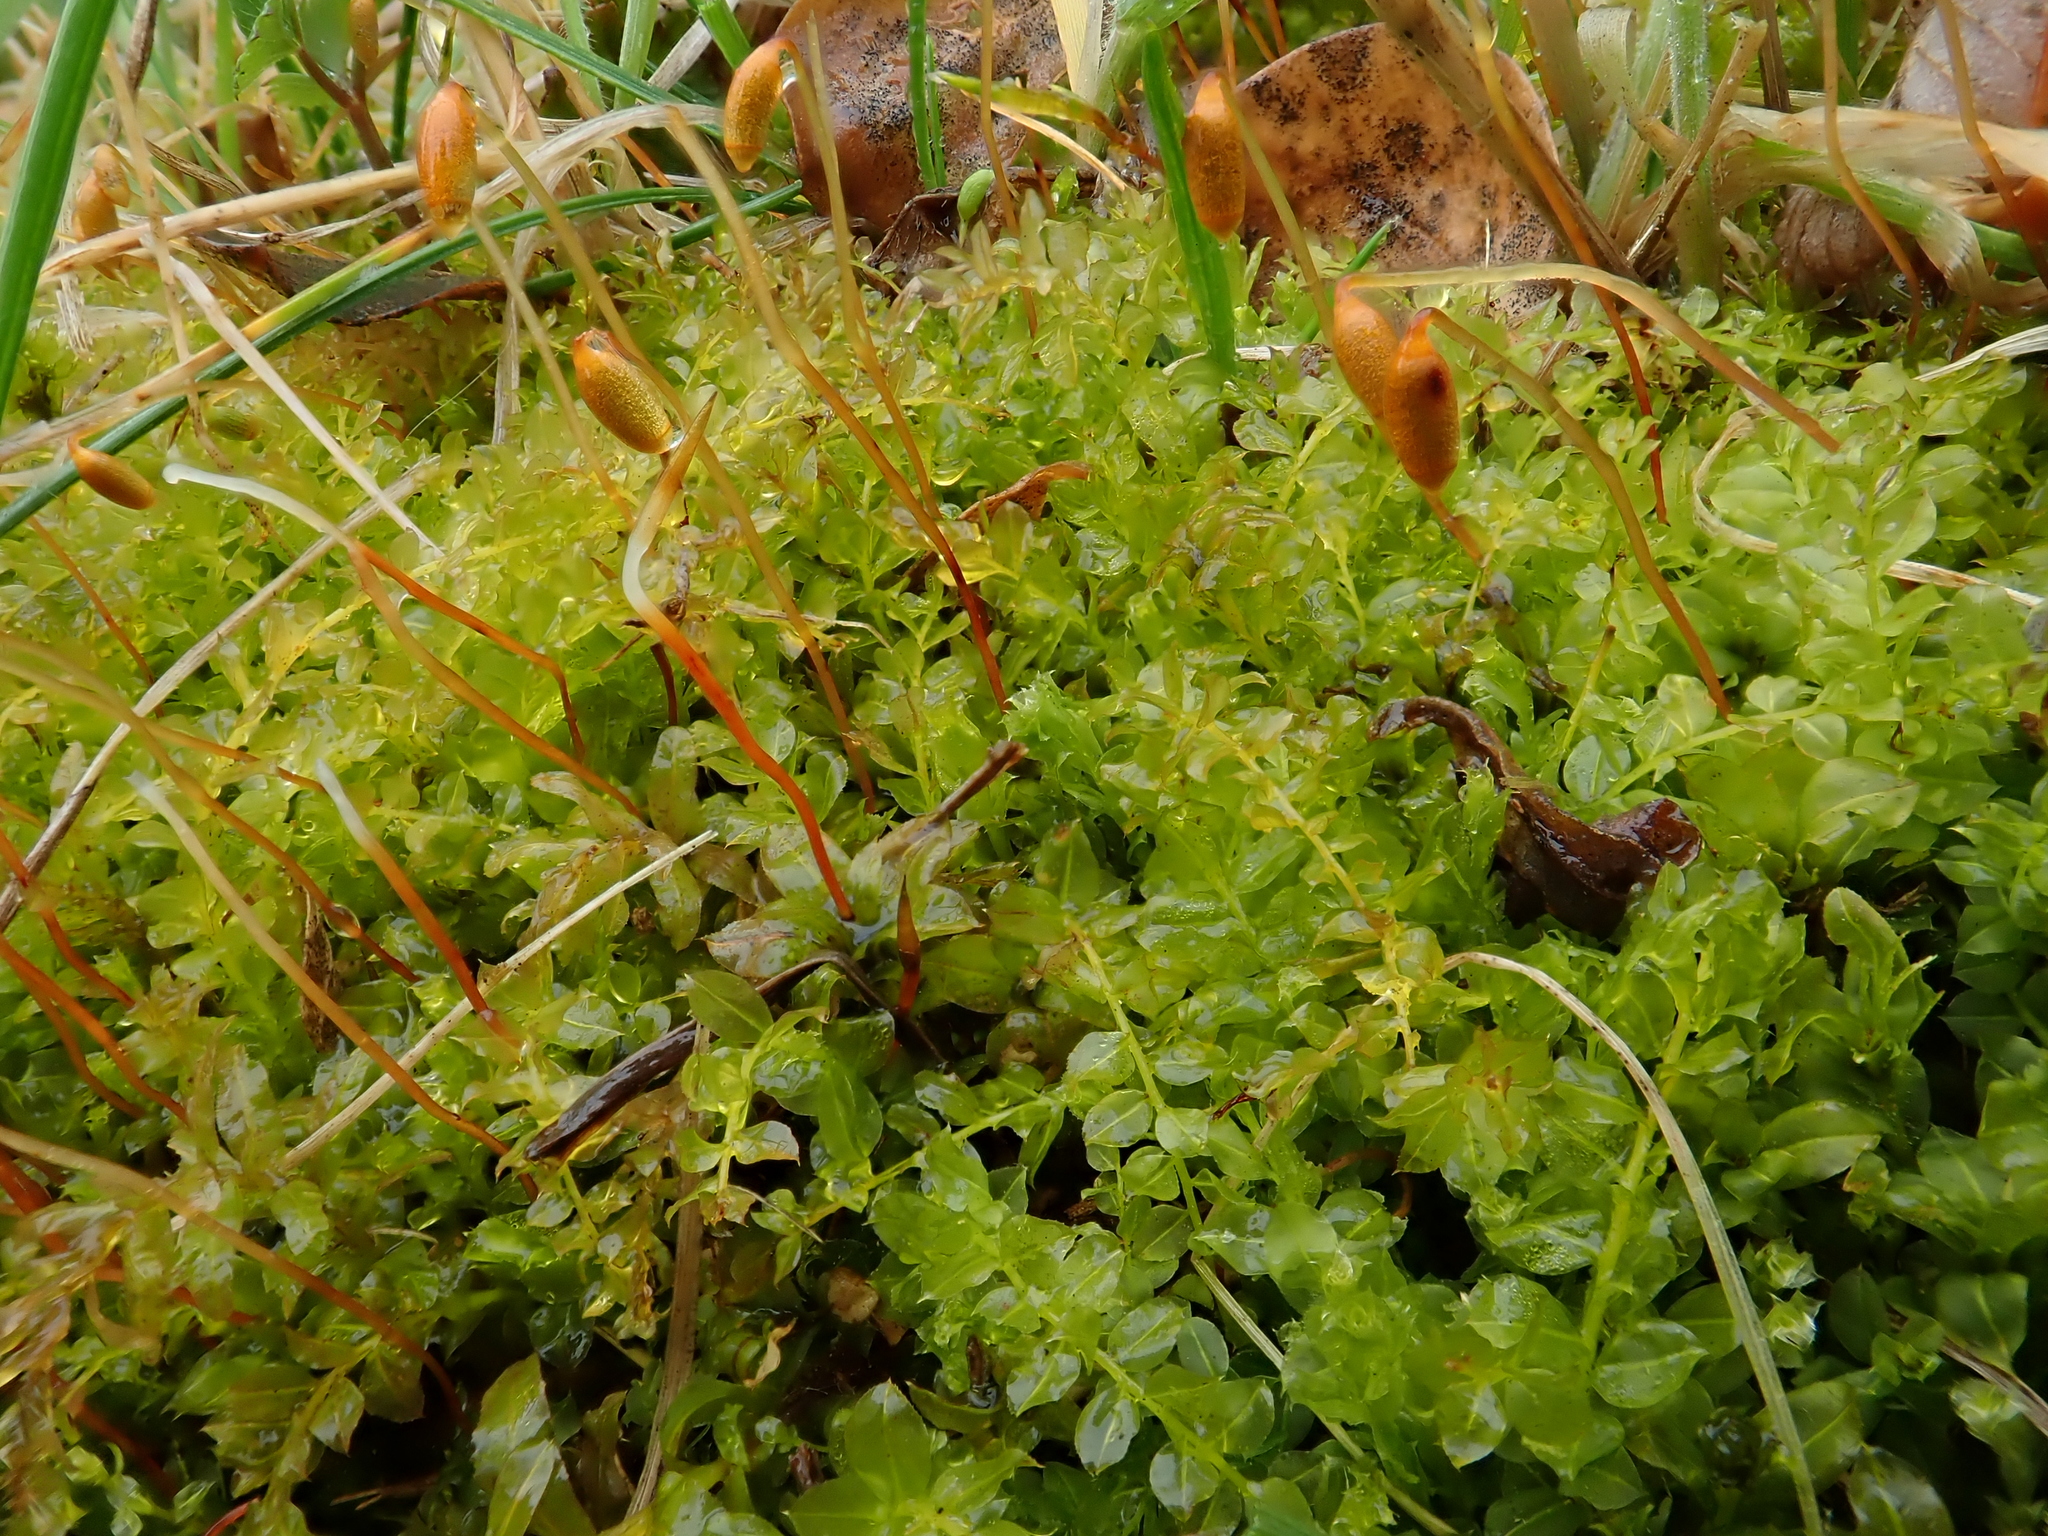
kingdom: Plantae
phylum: Bryophyta
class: Bryopsida
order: Bryales
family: Mniaceae
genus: Plagiomnium
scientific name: Plagiomnium cuspidatum
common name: Woodsy leafy moss
